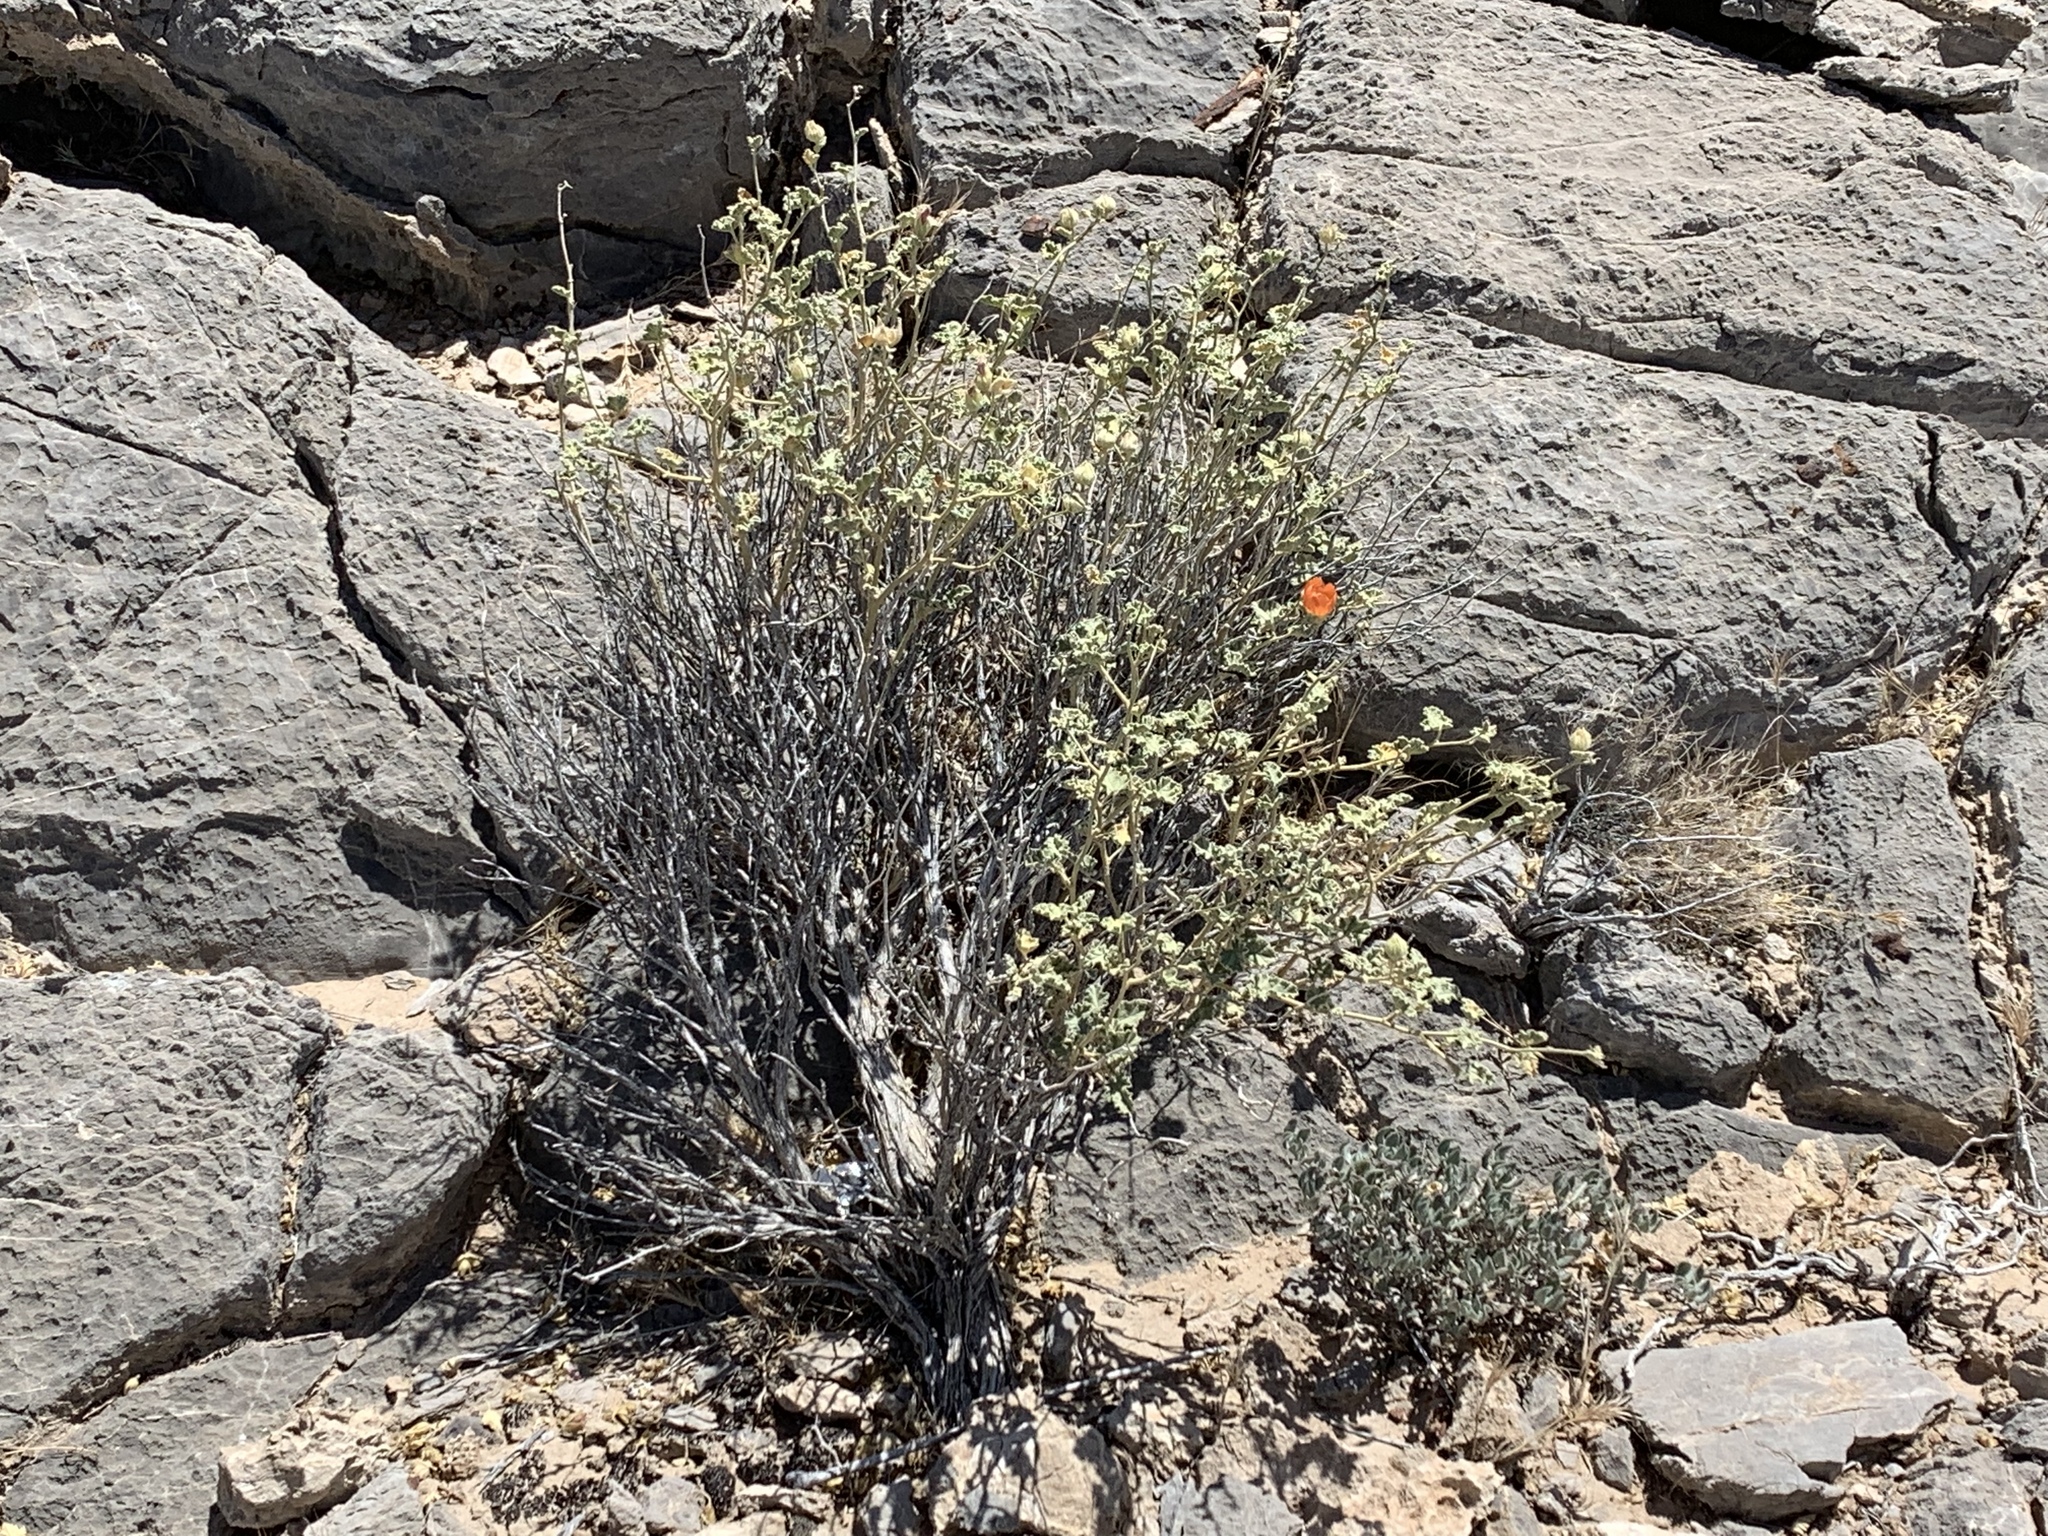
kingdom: Plantae
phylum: Tracheophyta
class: Magnoliopsida
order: Malvales
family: Malvaceae
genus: Sphaeralcea
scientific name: Sphaeralcea ambigua
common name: Apricot globe-mallow
